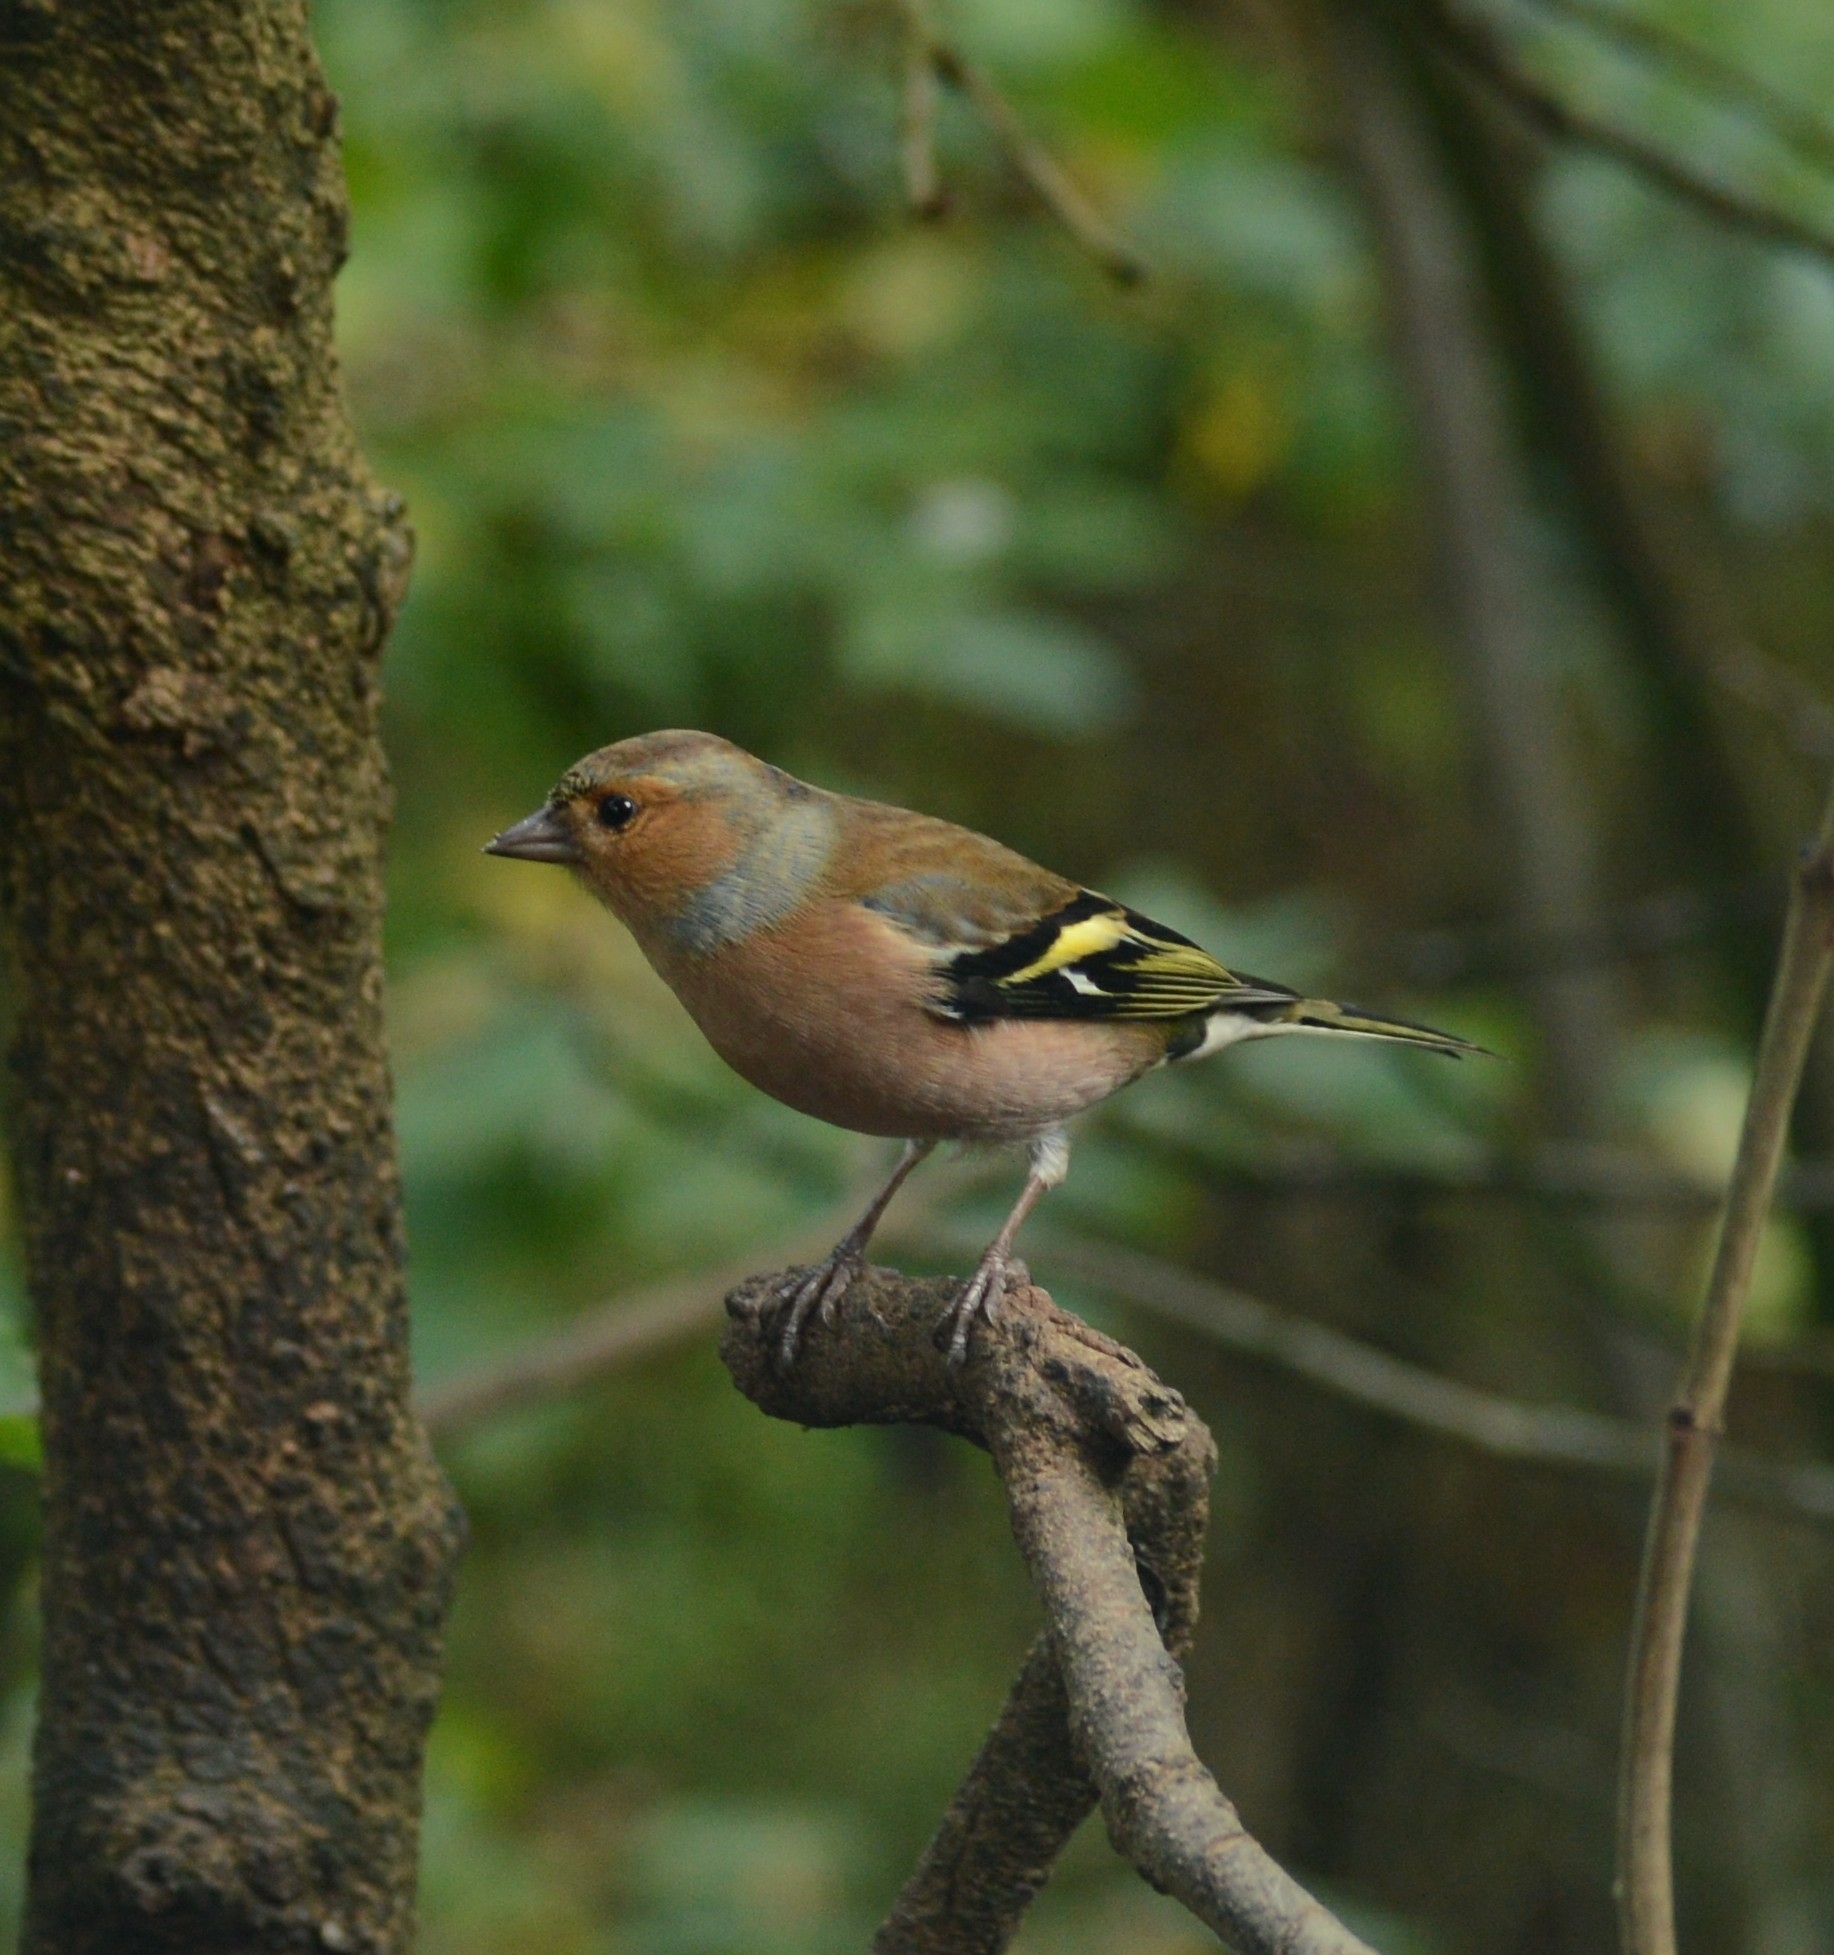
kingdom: Animalia
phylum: Chordata
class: Aves
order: Passeriformes
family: Fringillidae
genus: Fringilla
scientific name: Fringilla coelebs
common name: Common chaffinch
